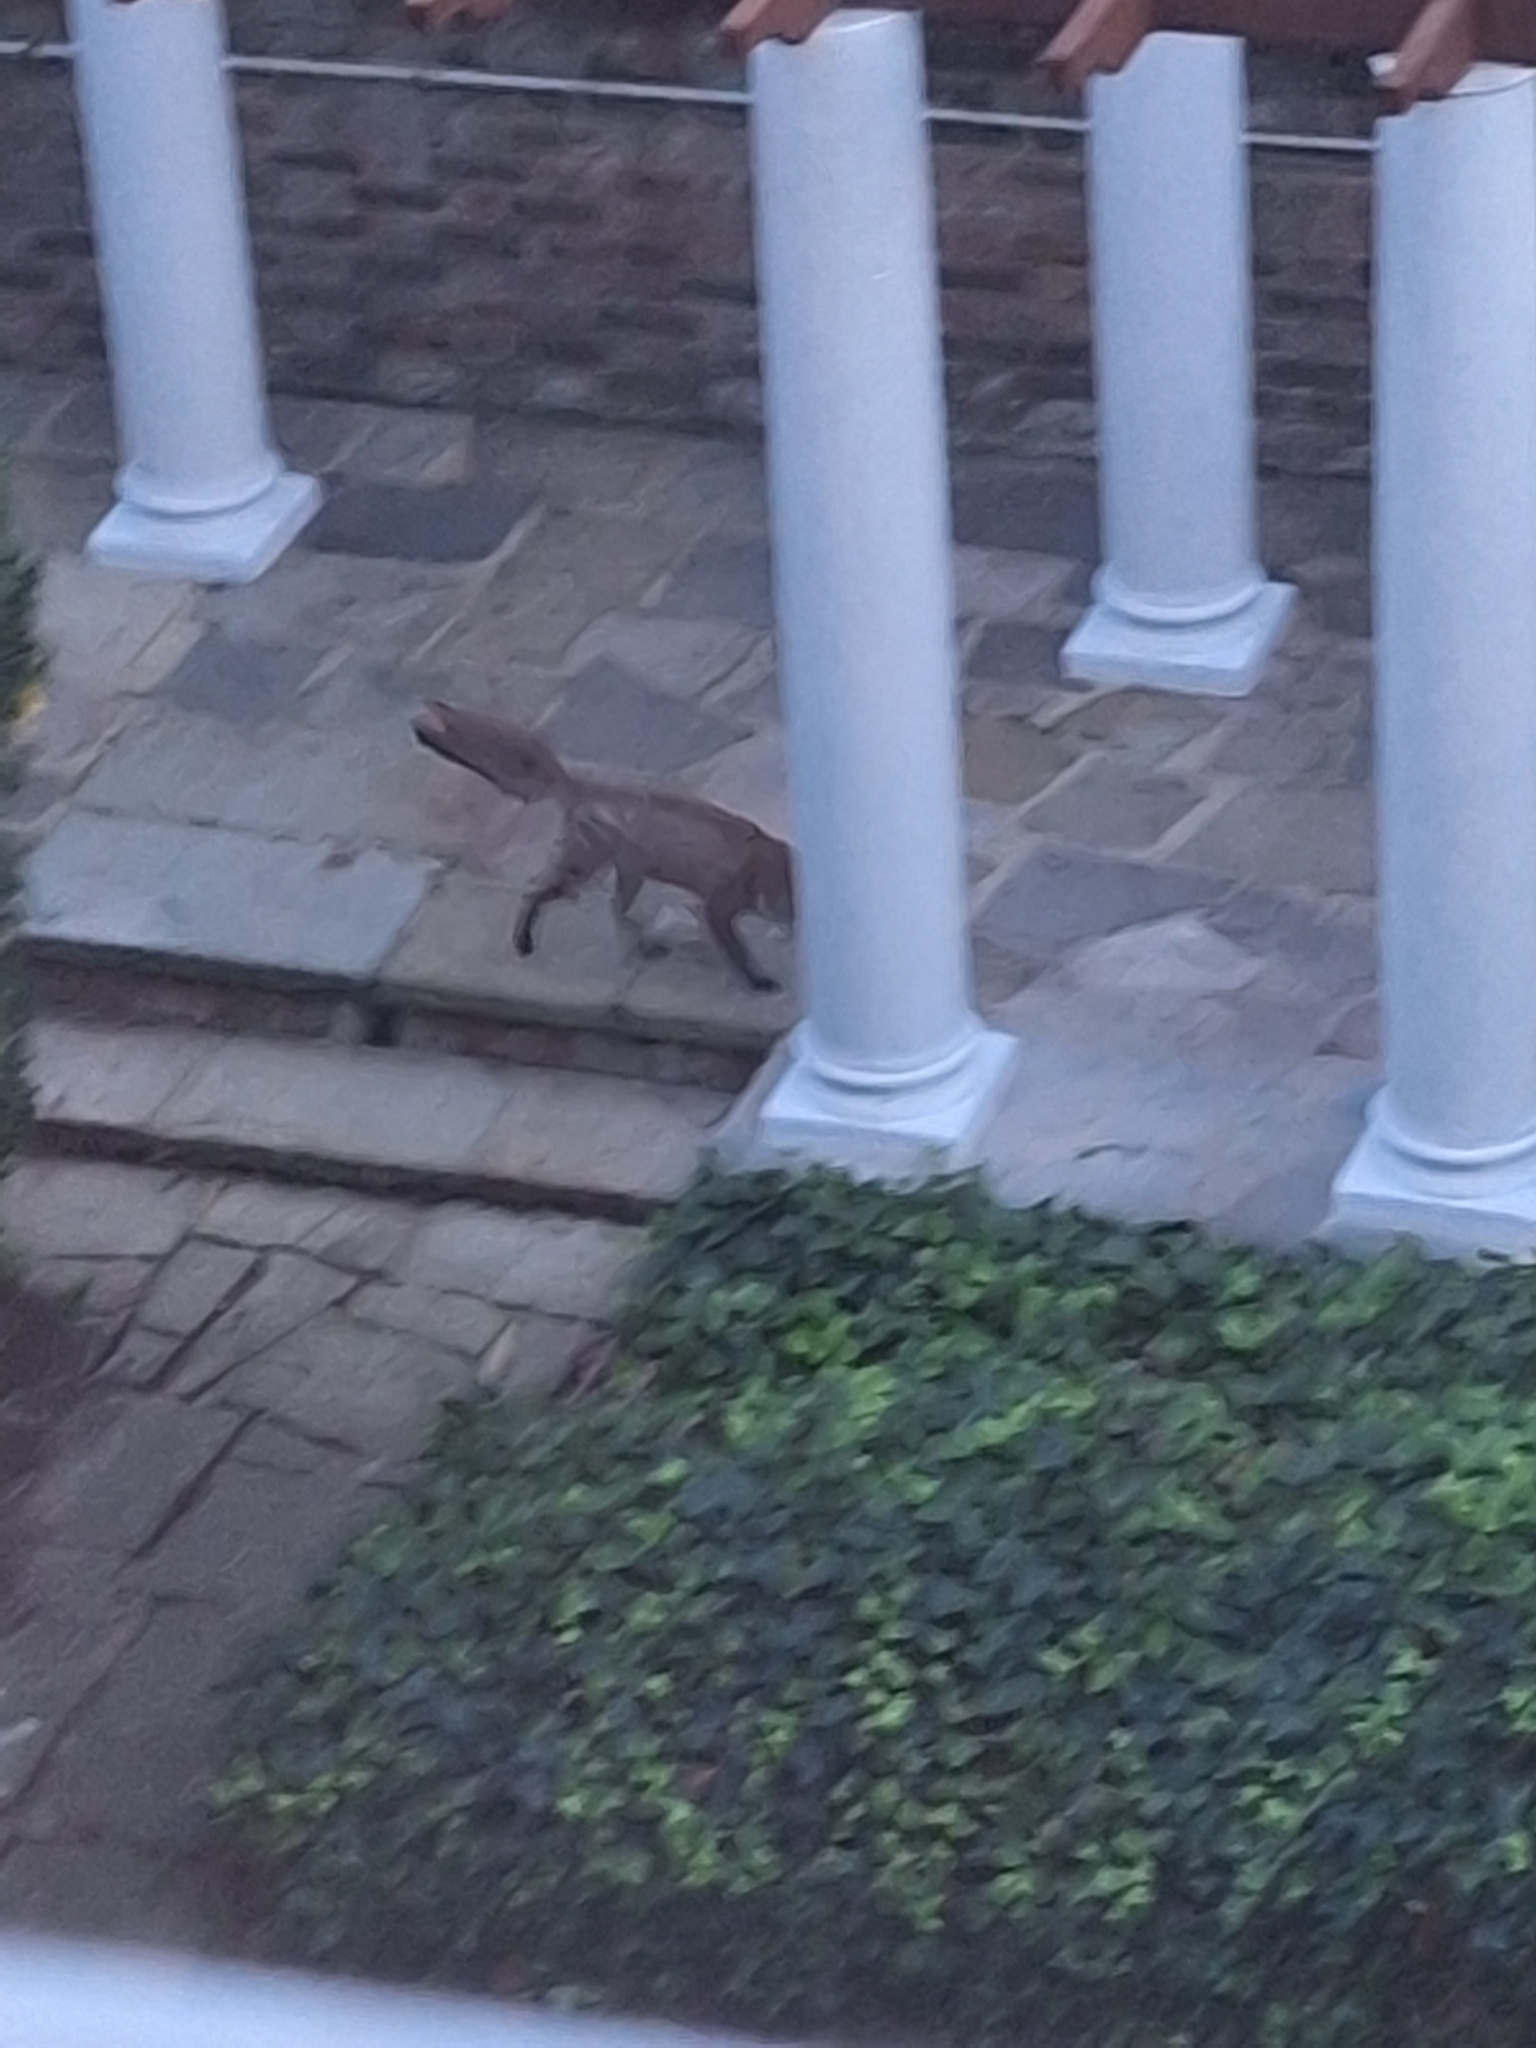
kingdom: Animalia
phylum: Chordata
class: Mammalia
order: Carnivora
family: Canidae
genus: Vulpes
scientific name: Vulpes vulpes
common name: Red fox
